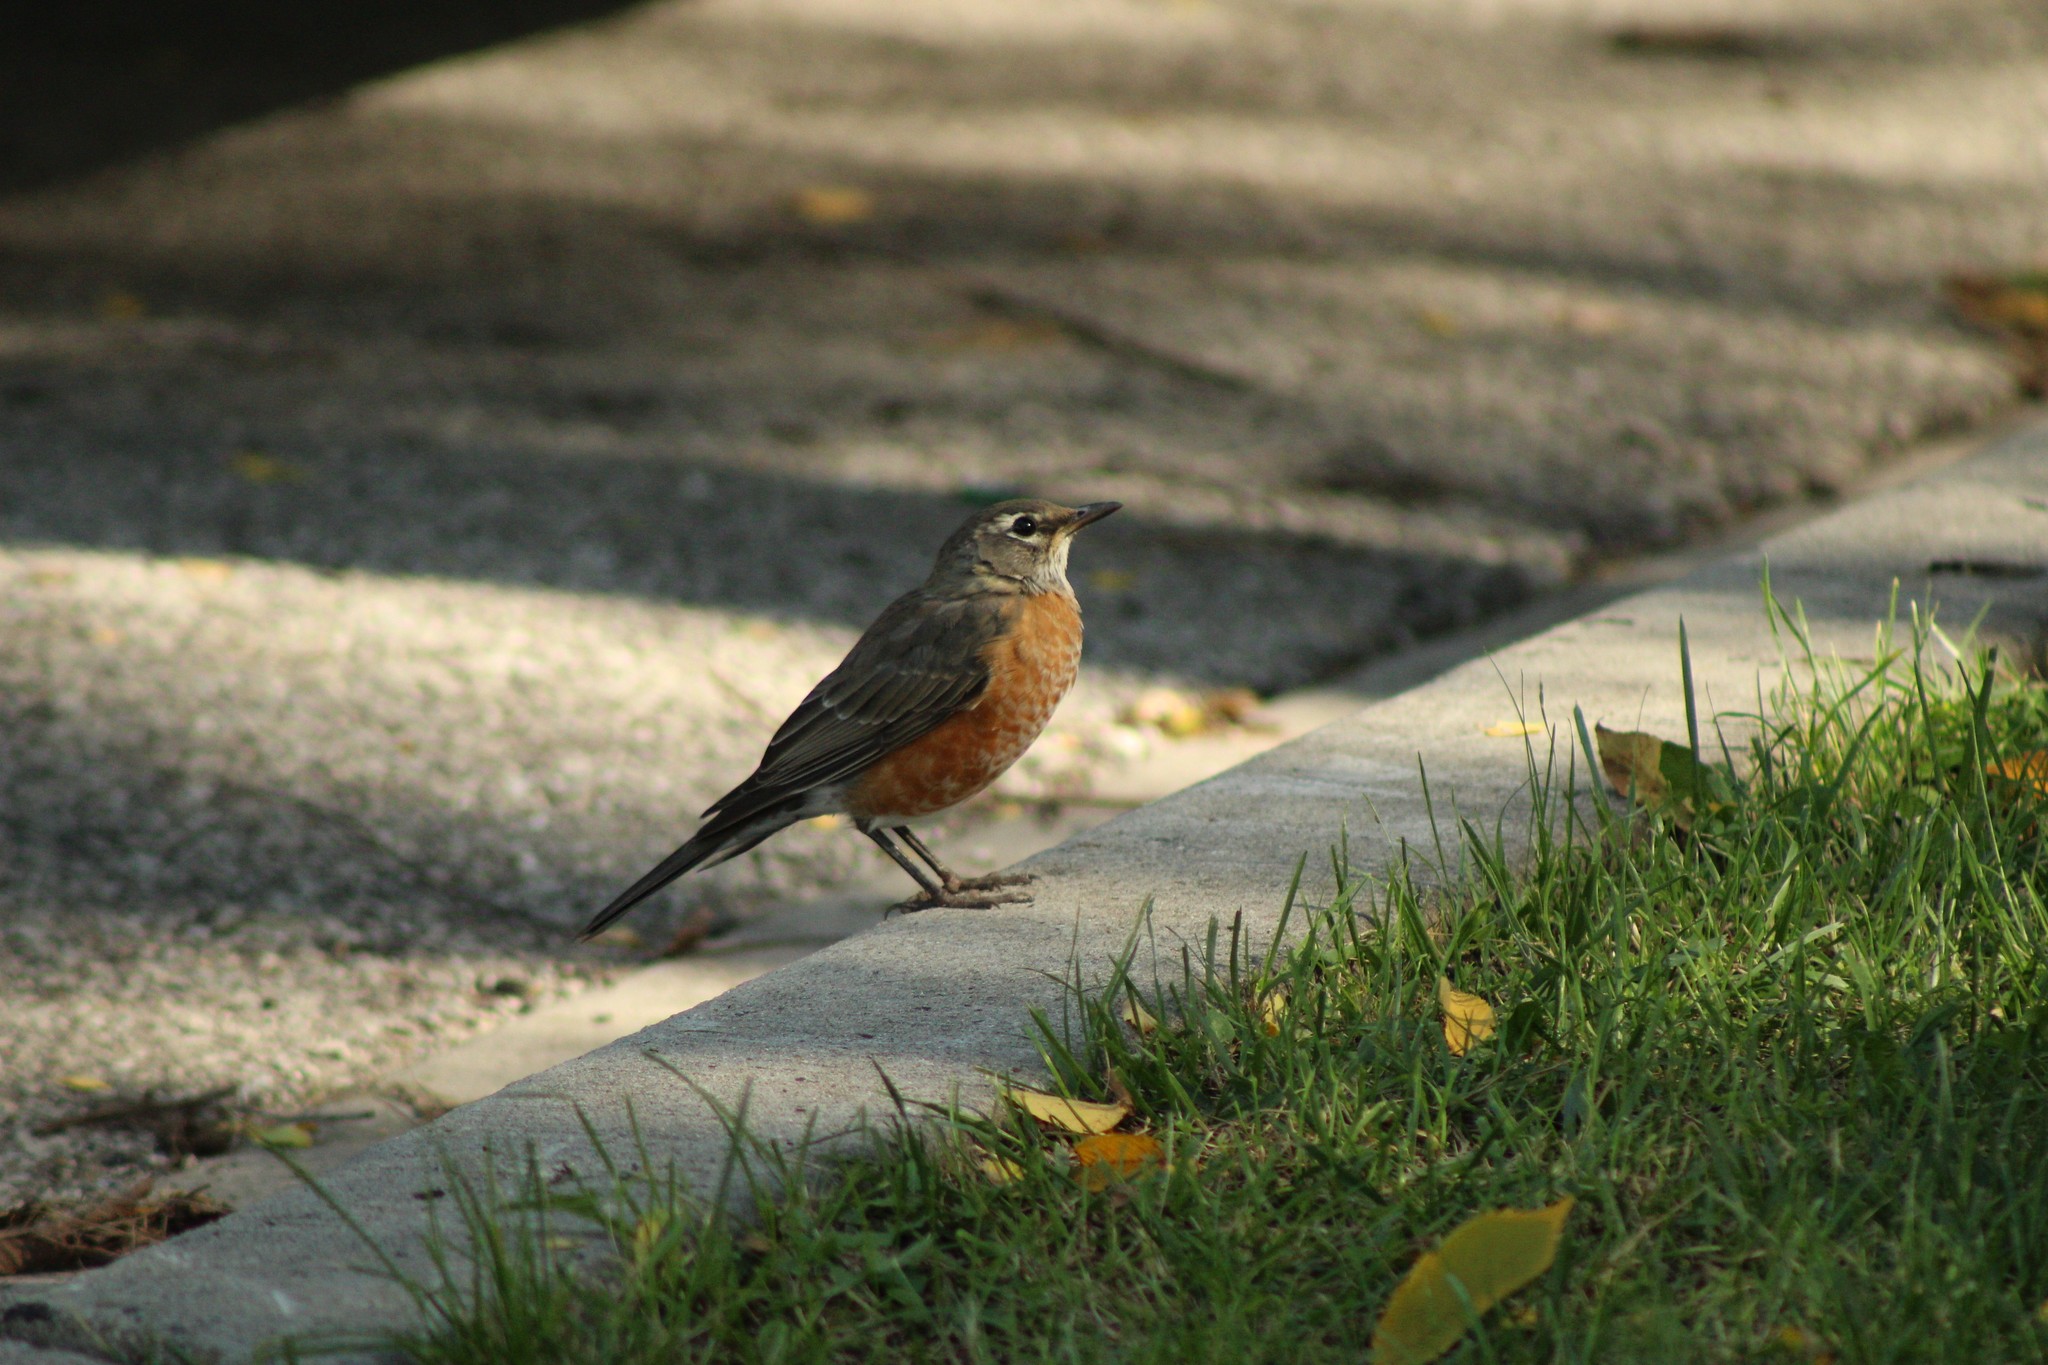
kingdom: Animalia
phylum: Chordata
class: Aves
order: Passeriformes
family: Turdidae
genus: Turdus
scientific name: Turdus migratorius
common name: American robin
